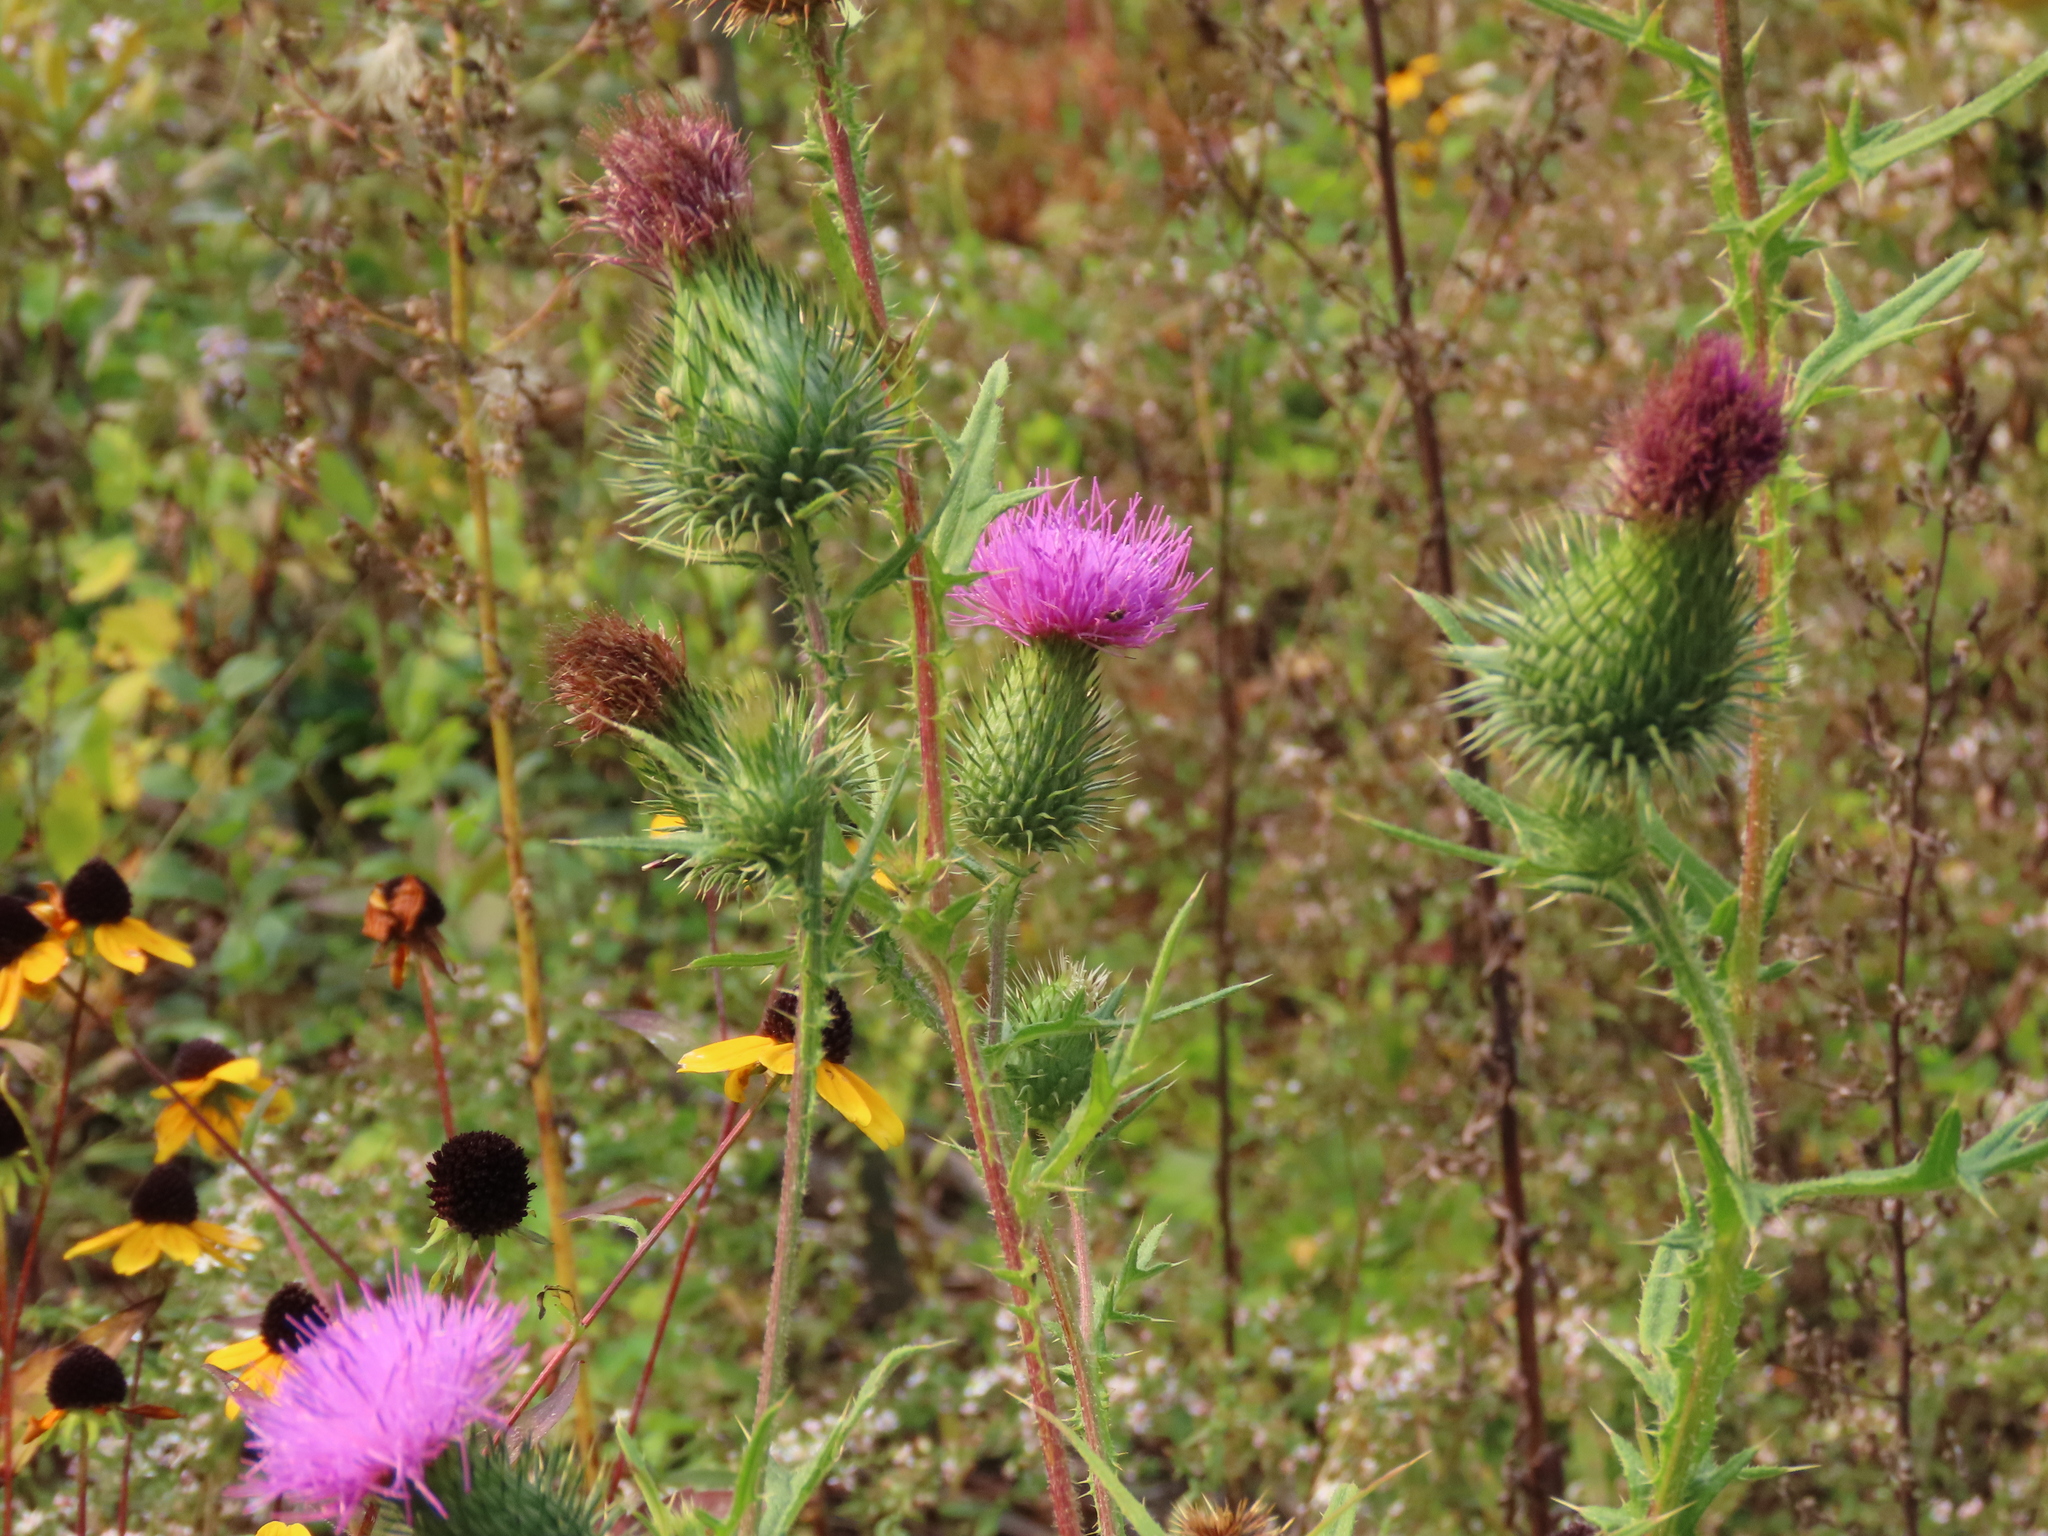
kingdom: Plantae
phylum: Tracheophyta
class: Magnoliopsida
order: Asterales
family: Asteraceae
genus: Cirsium
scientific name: Cirsium vulgare
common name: Bull thistle
